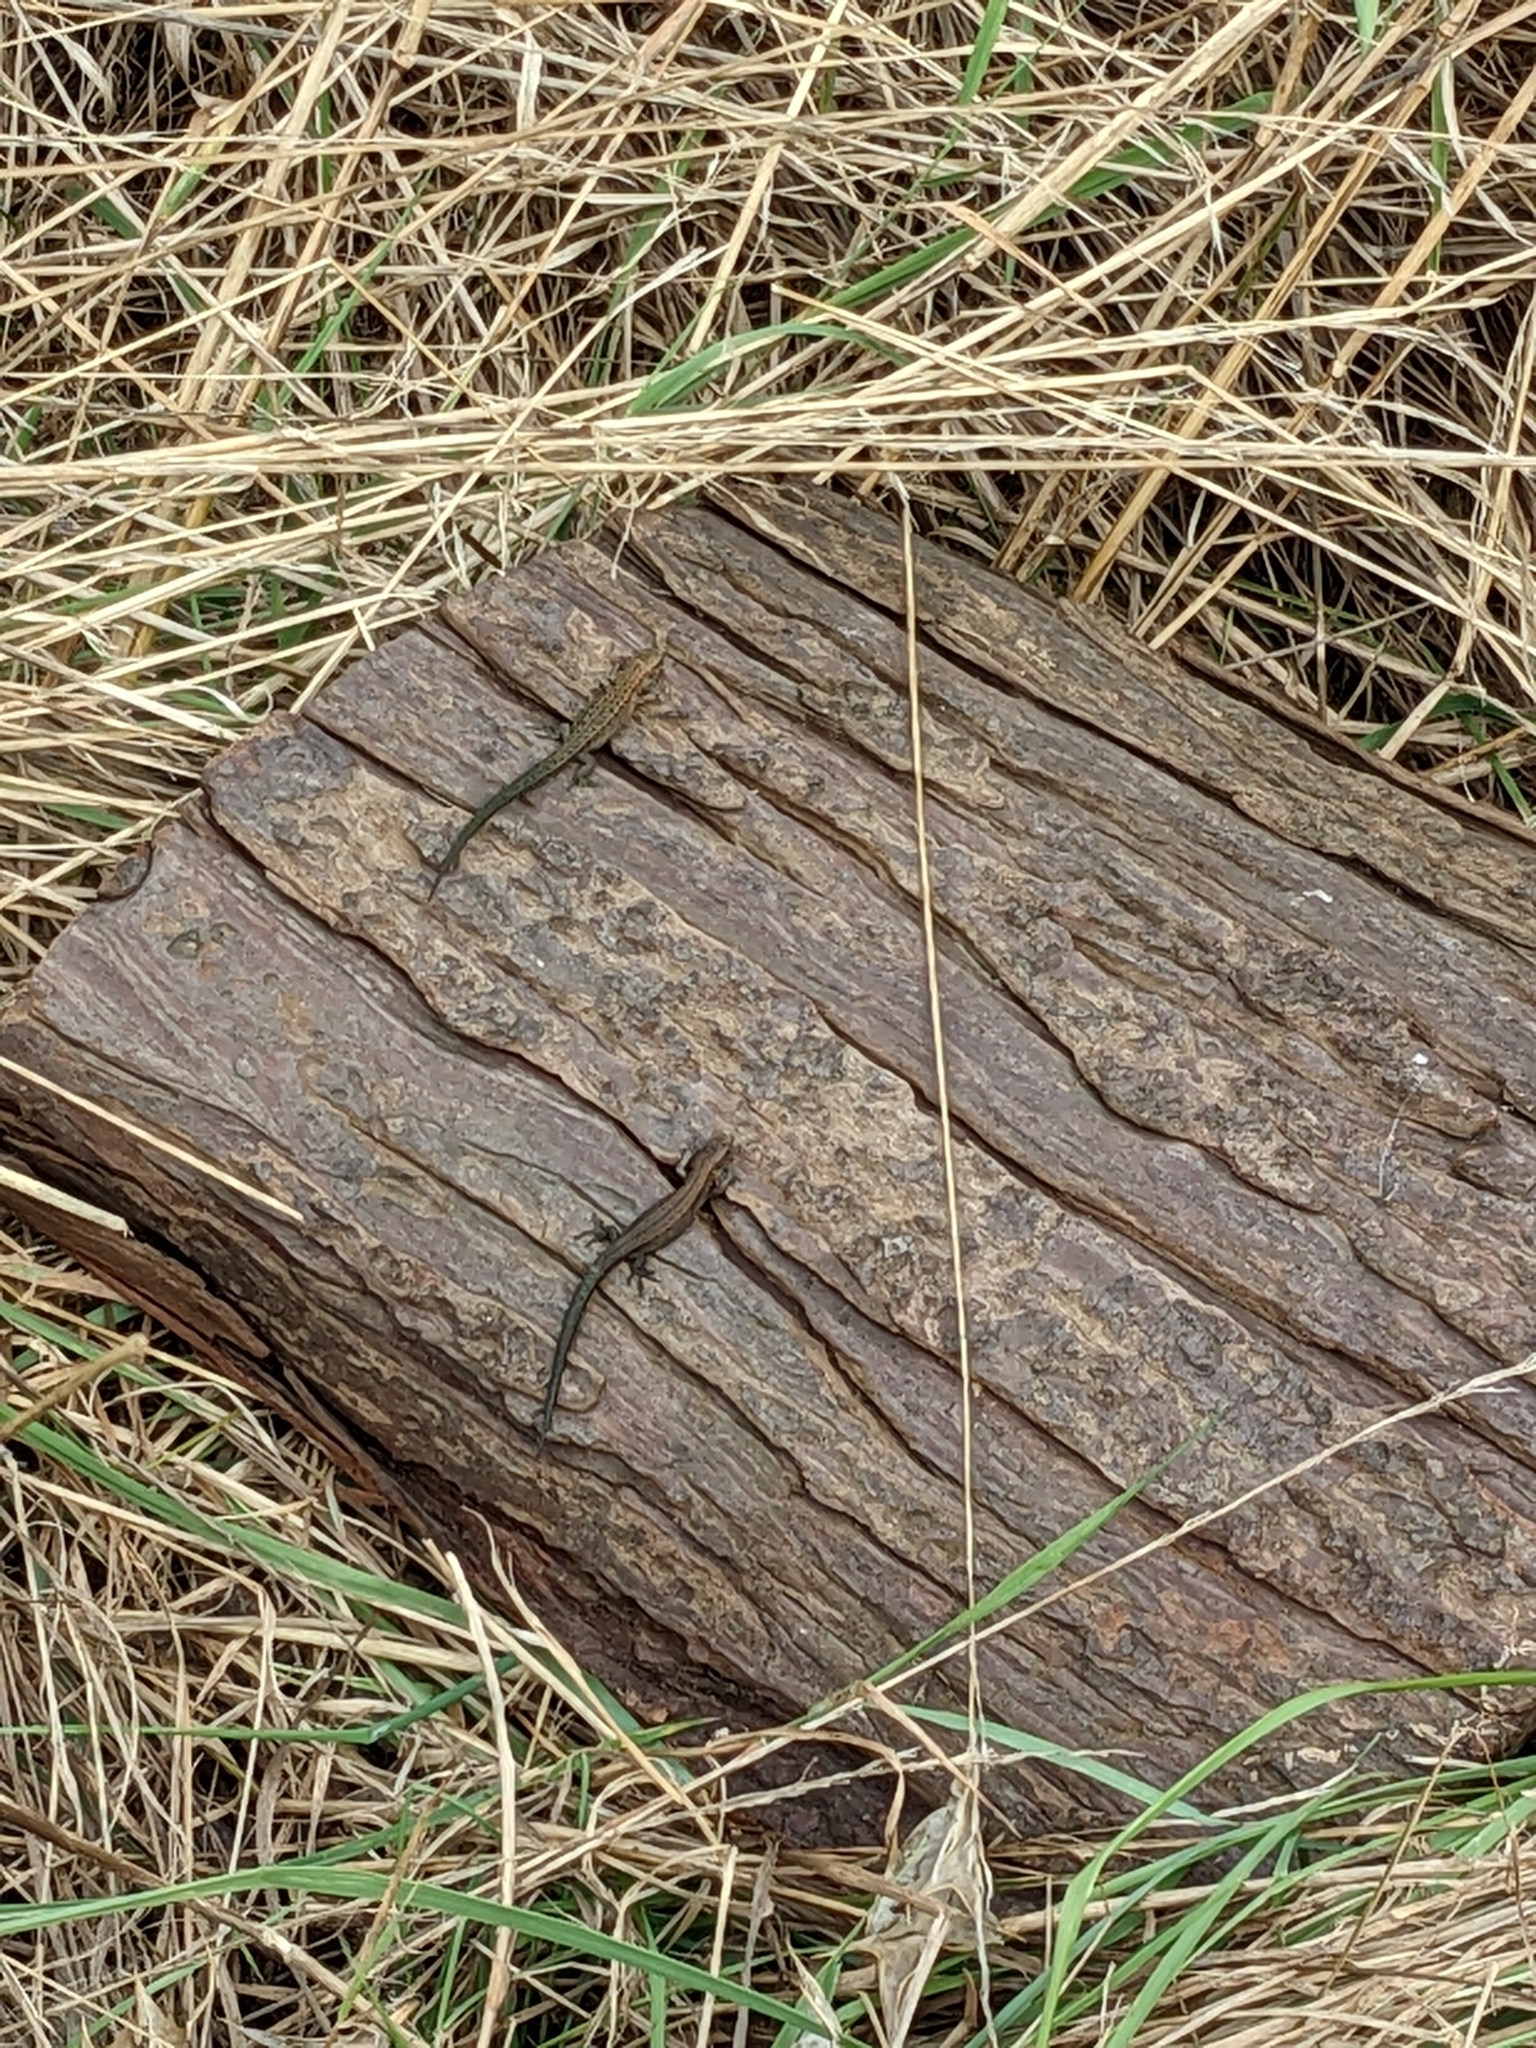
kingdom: Animalia
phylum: Chordata
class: Squamata
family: Lacertidae
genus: Zootoca
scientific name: Zootoca vivipara
